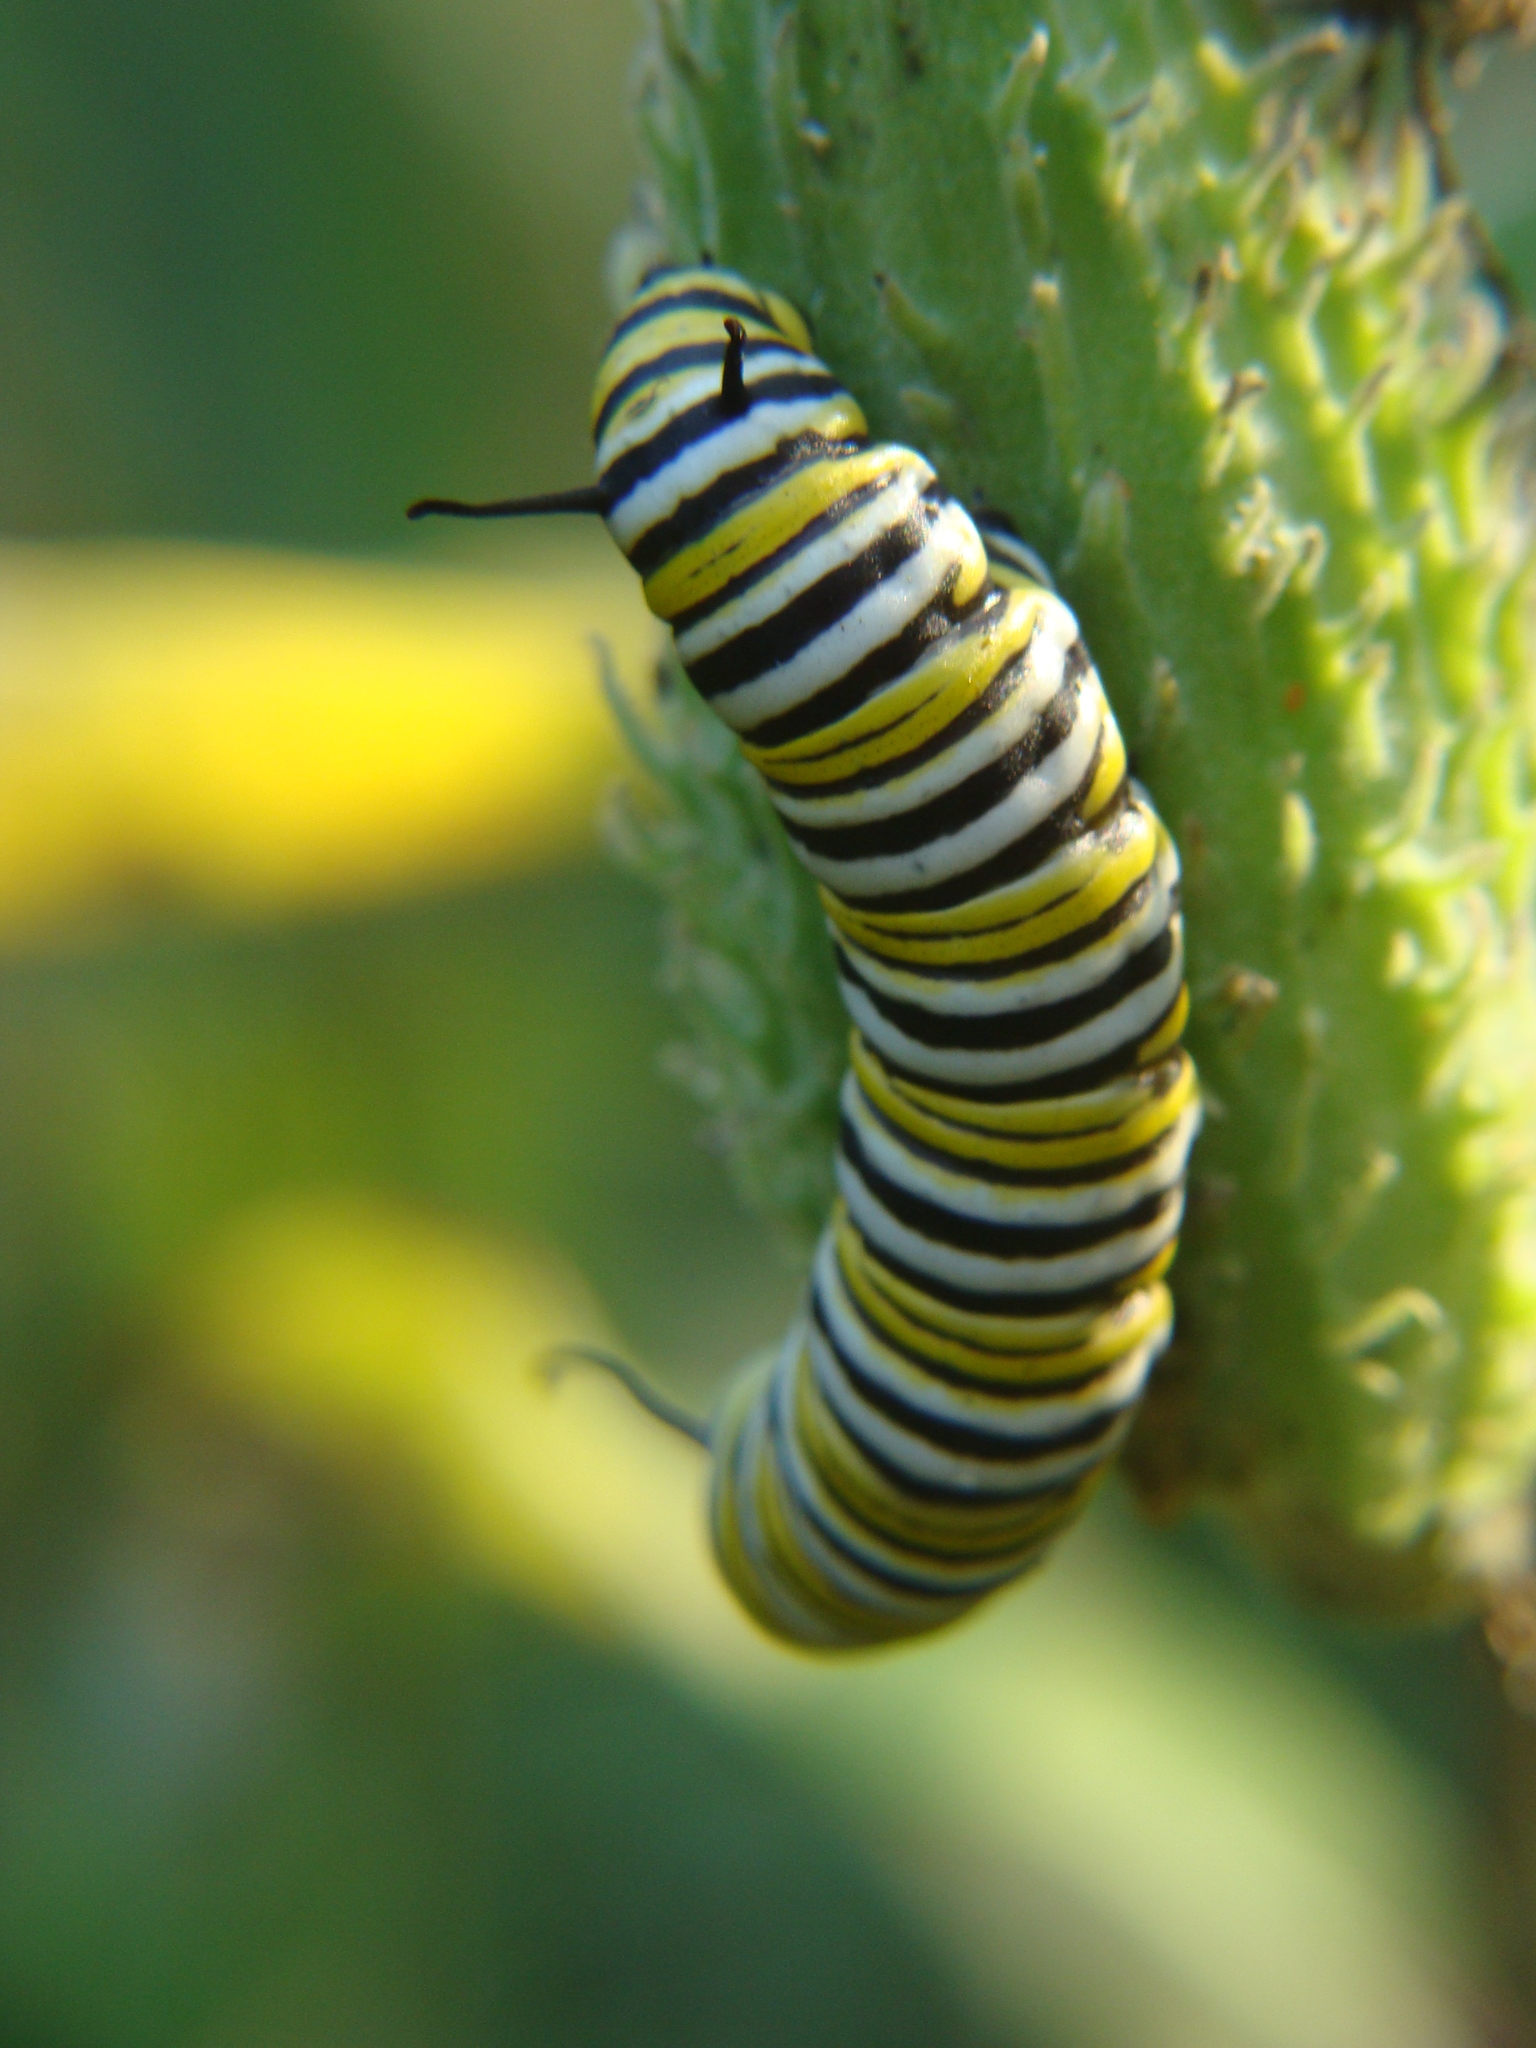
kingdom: Animalia
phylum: Arthropoda
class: Insecta
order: Lepidoptera
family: Nymphalidae
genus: Danaus
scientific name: Danaus plexippus
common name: Monarch
